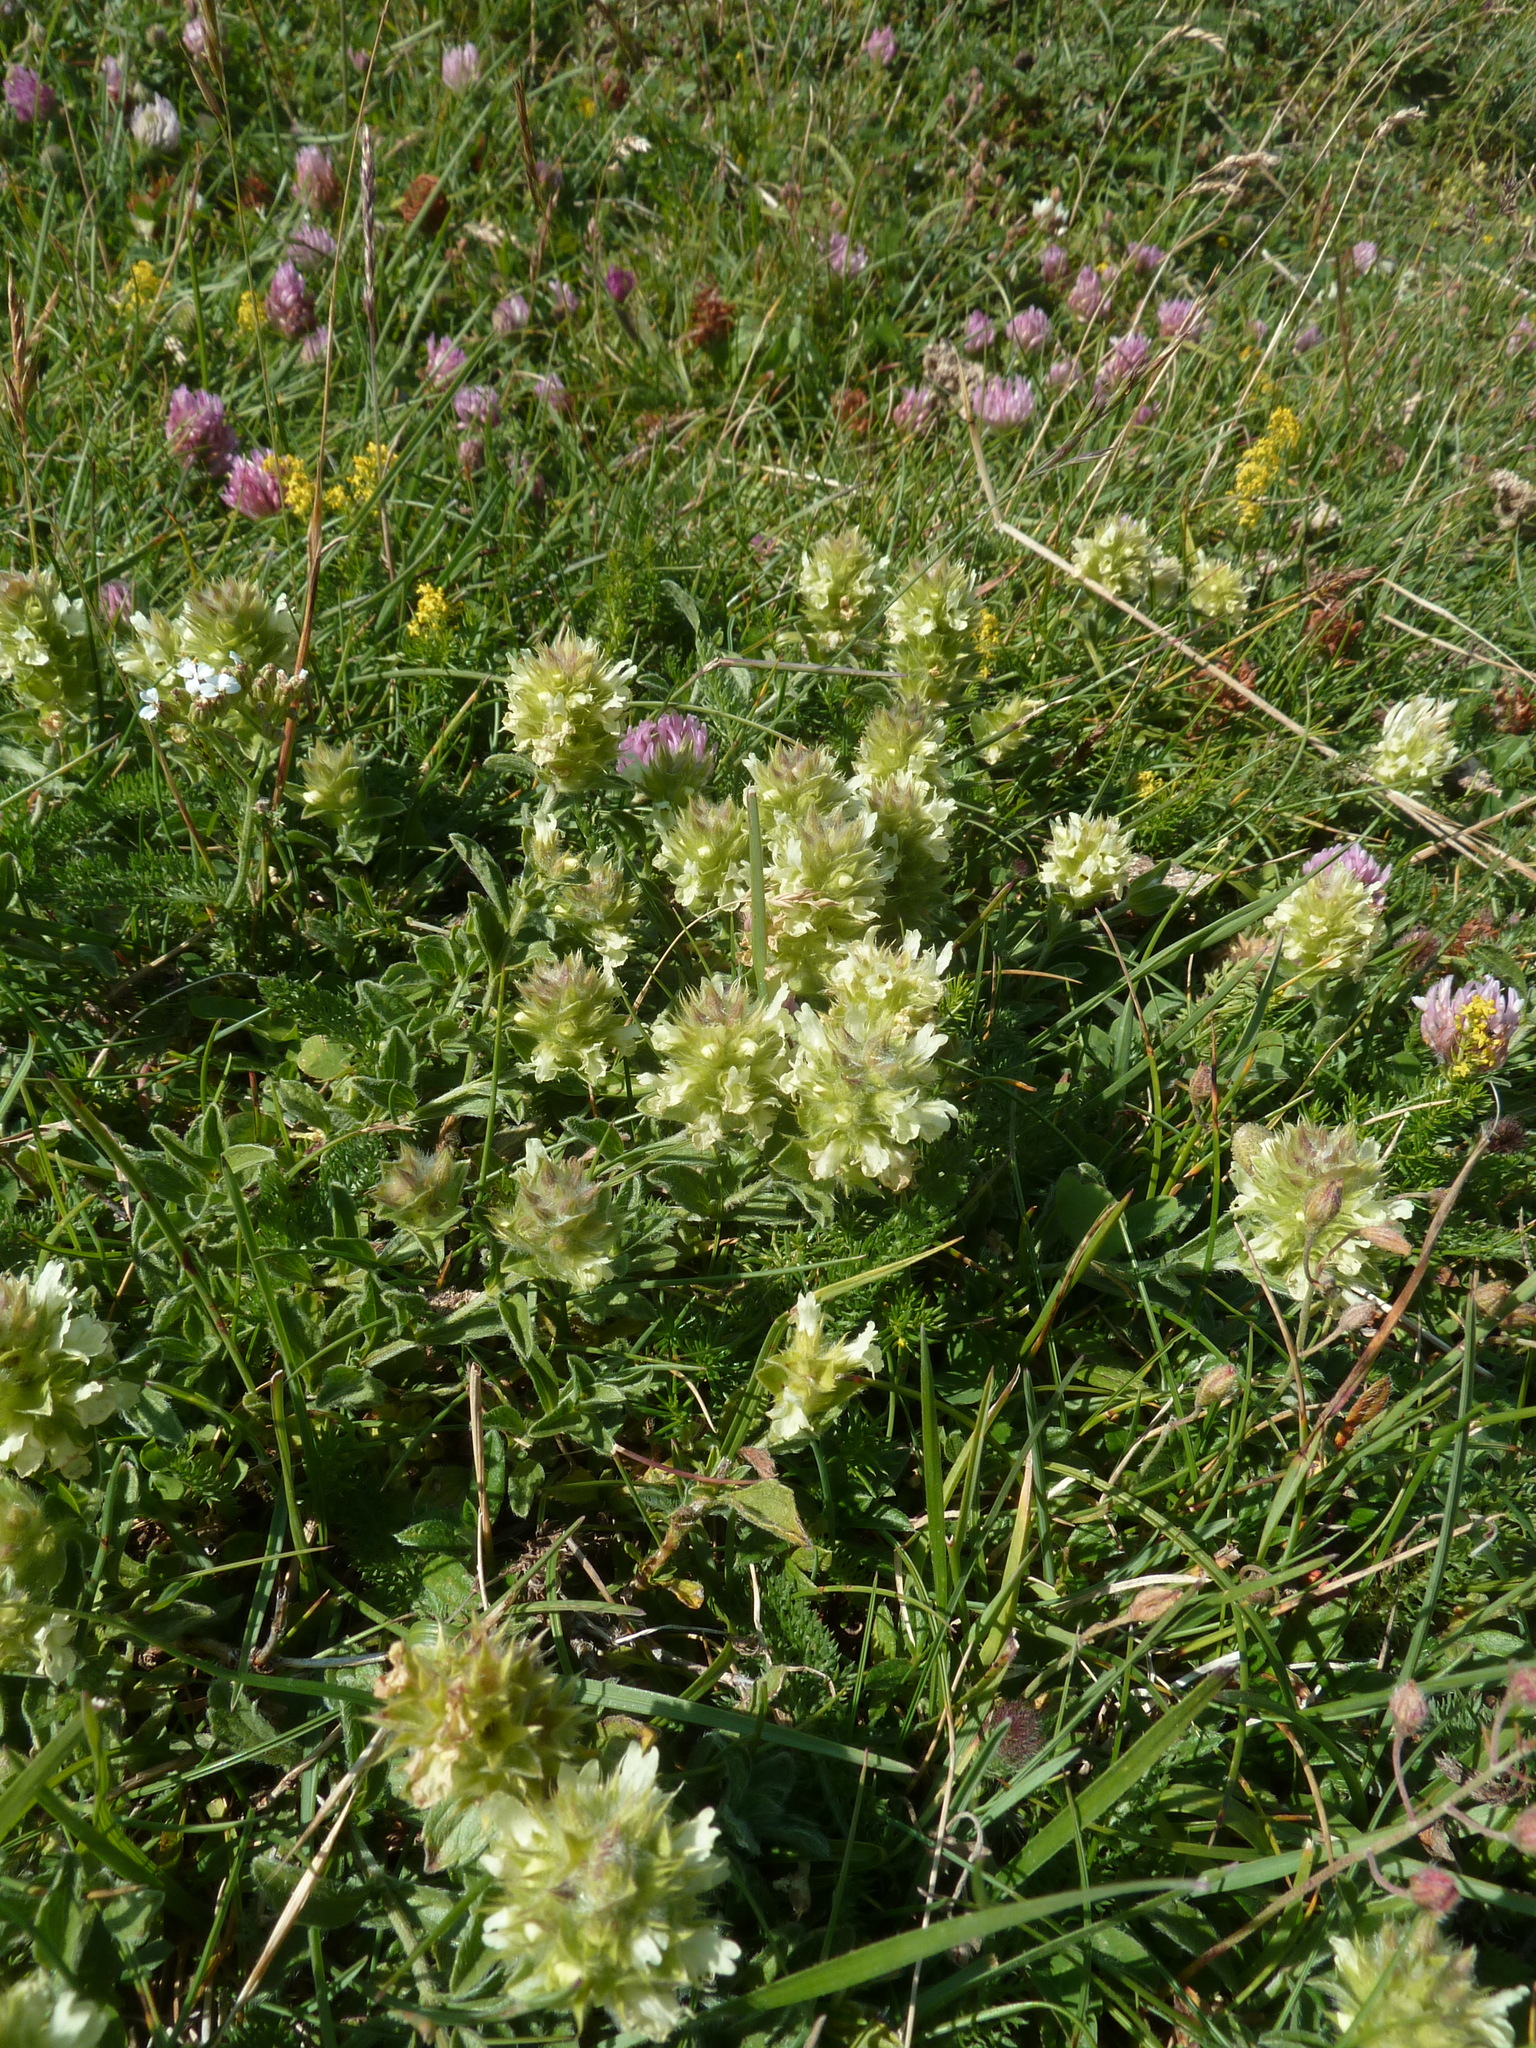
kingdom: Plantae
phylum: Tracheophyta
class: Magnoliopsida
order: Lamiales
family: Lamiaceae
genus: Sideritis
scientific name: Sideritis hyssopifolia
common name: Mountain tea
